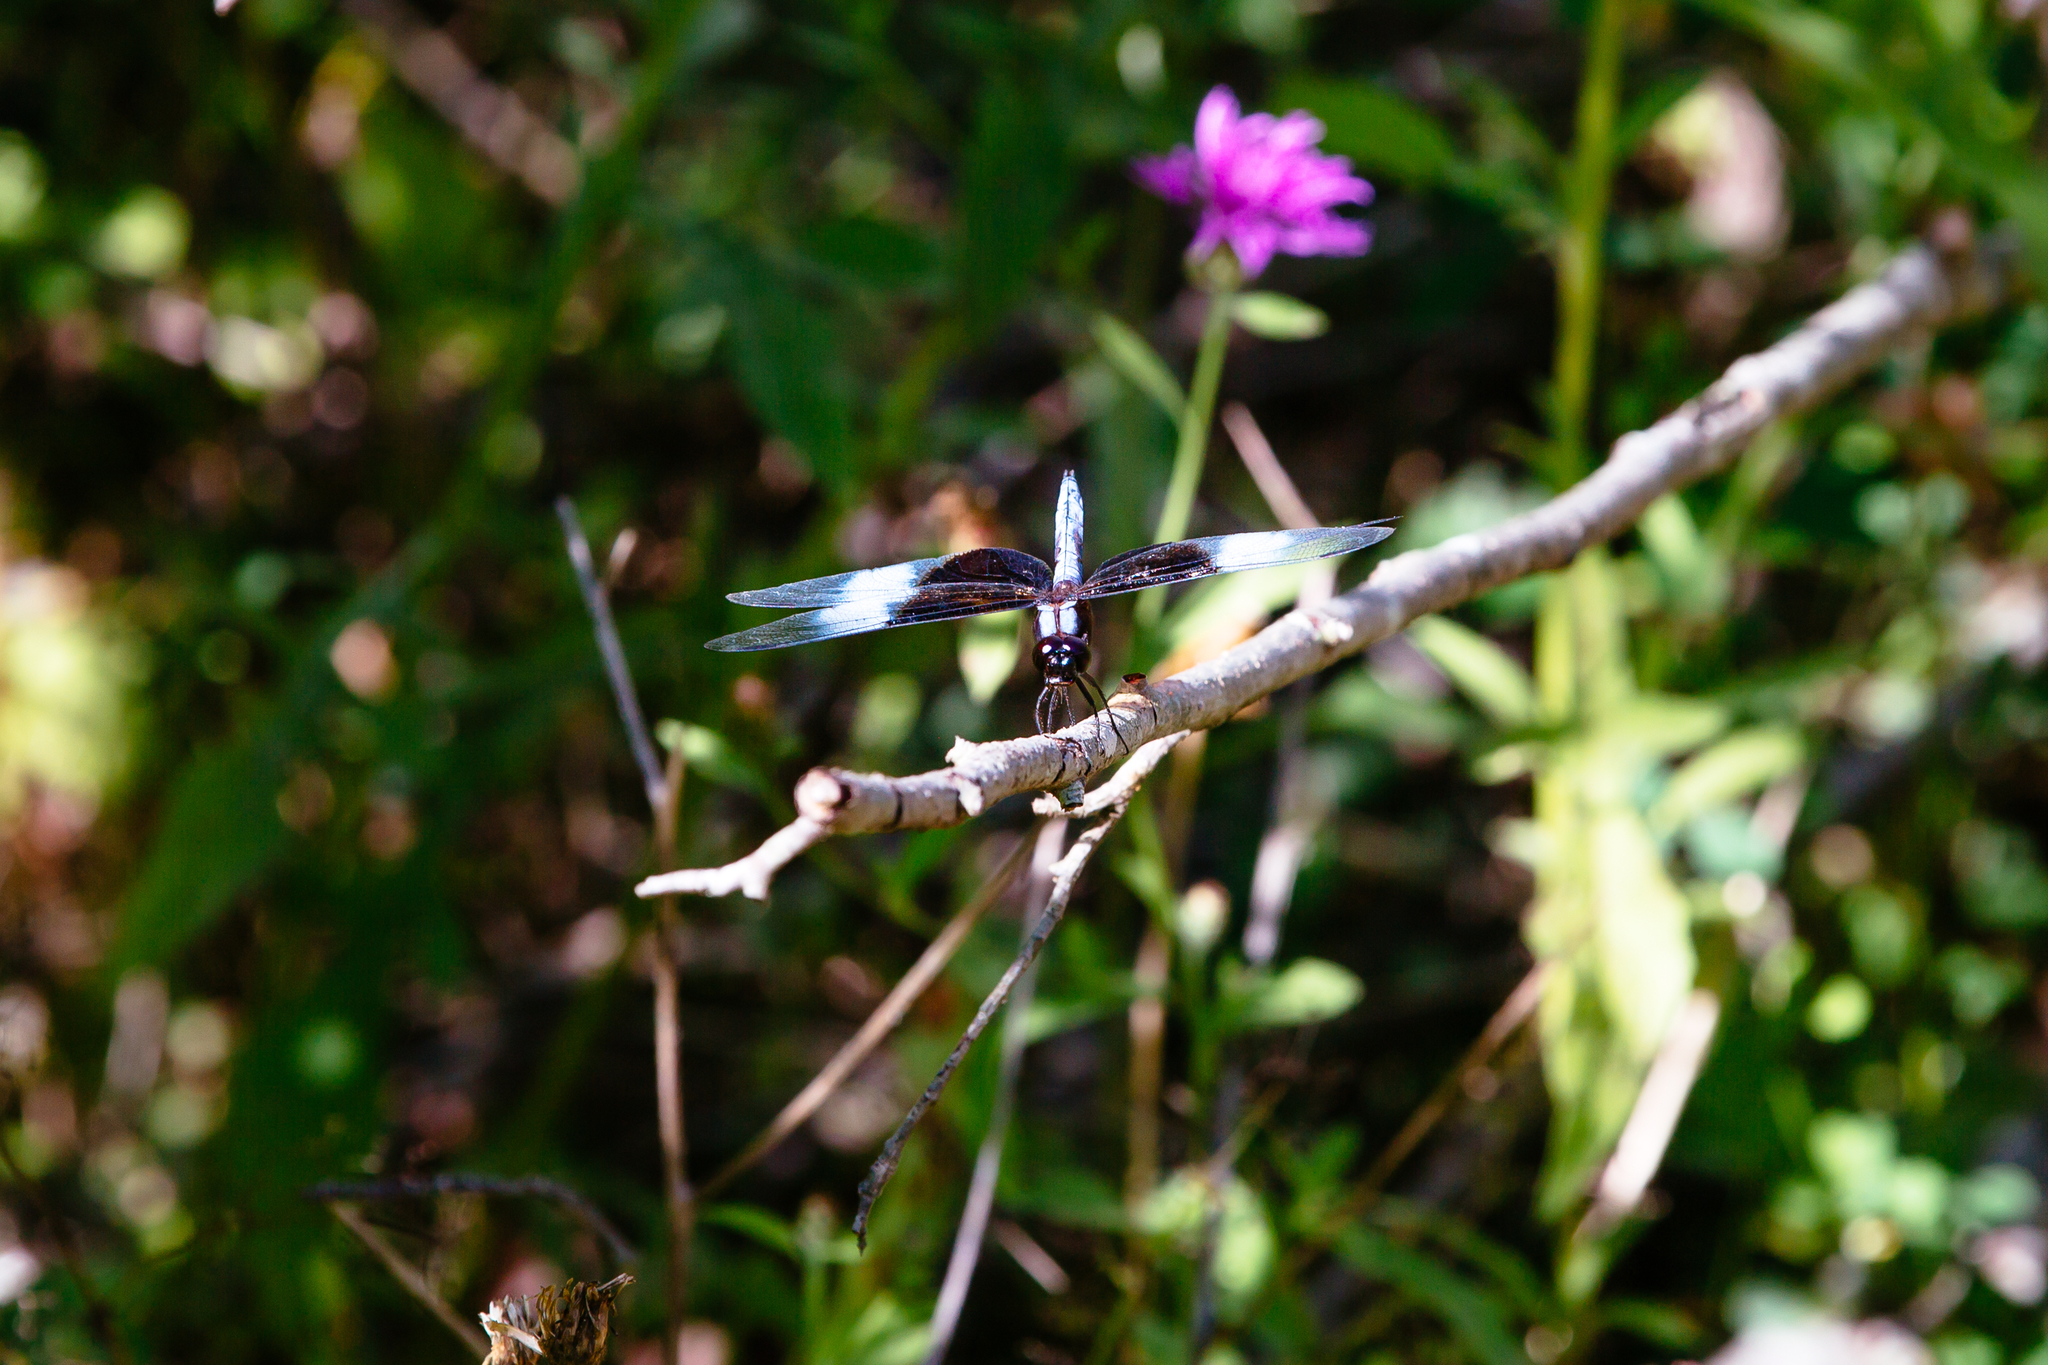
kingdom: Animalia
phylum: Arthropoda
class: Insecta
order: Odonata
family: Libellulidae
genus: Libellula
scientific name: Libellula luctuosa
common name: Widow skimmer
